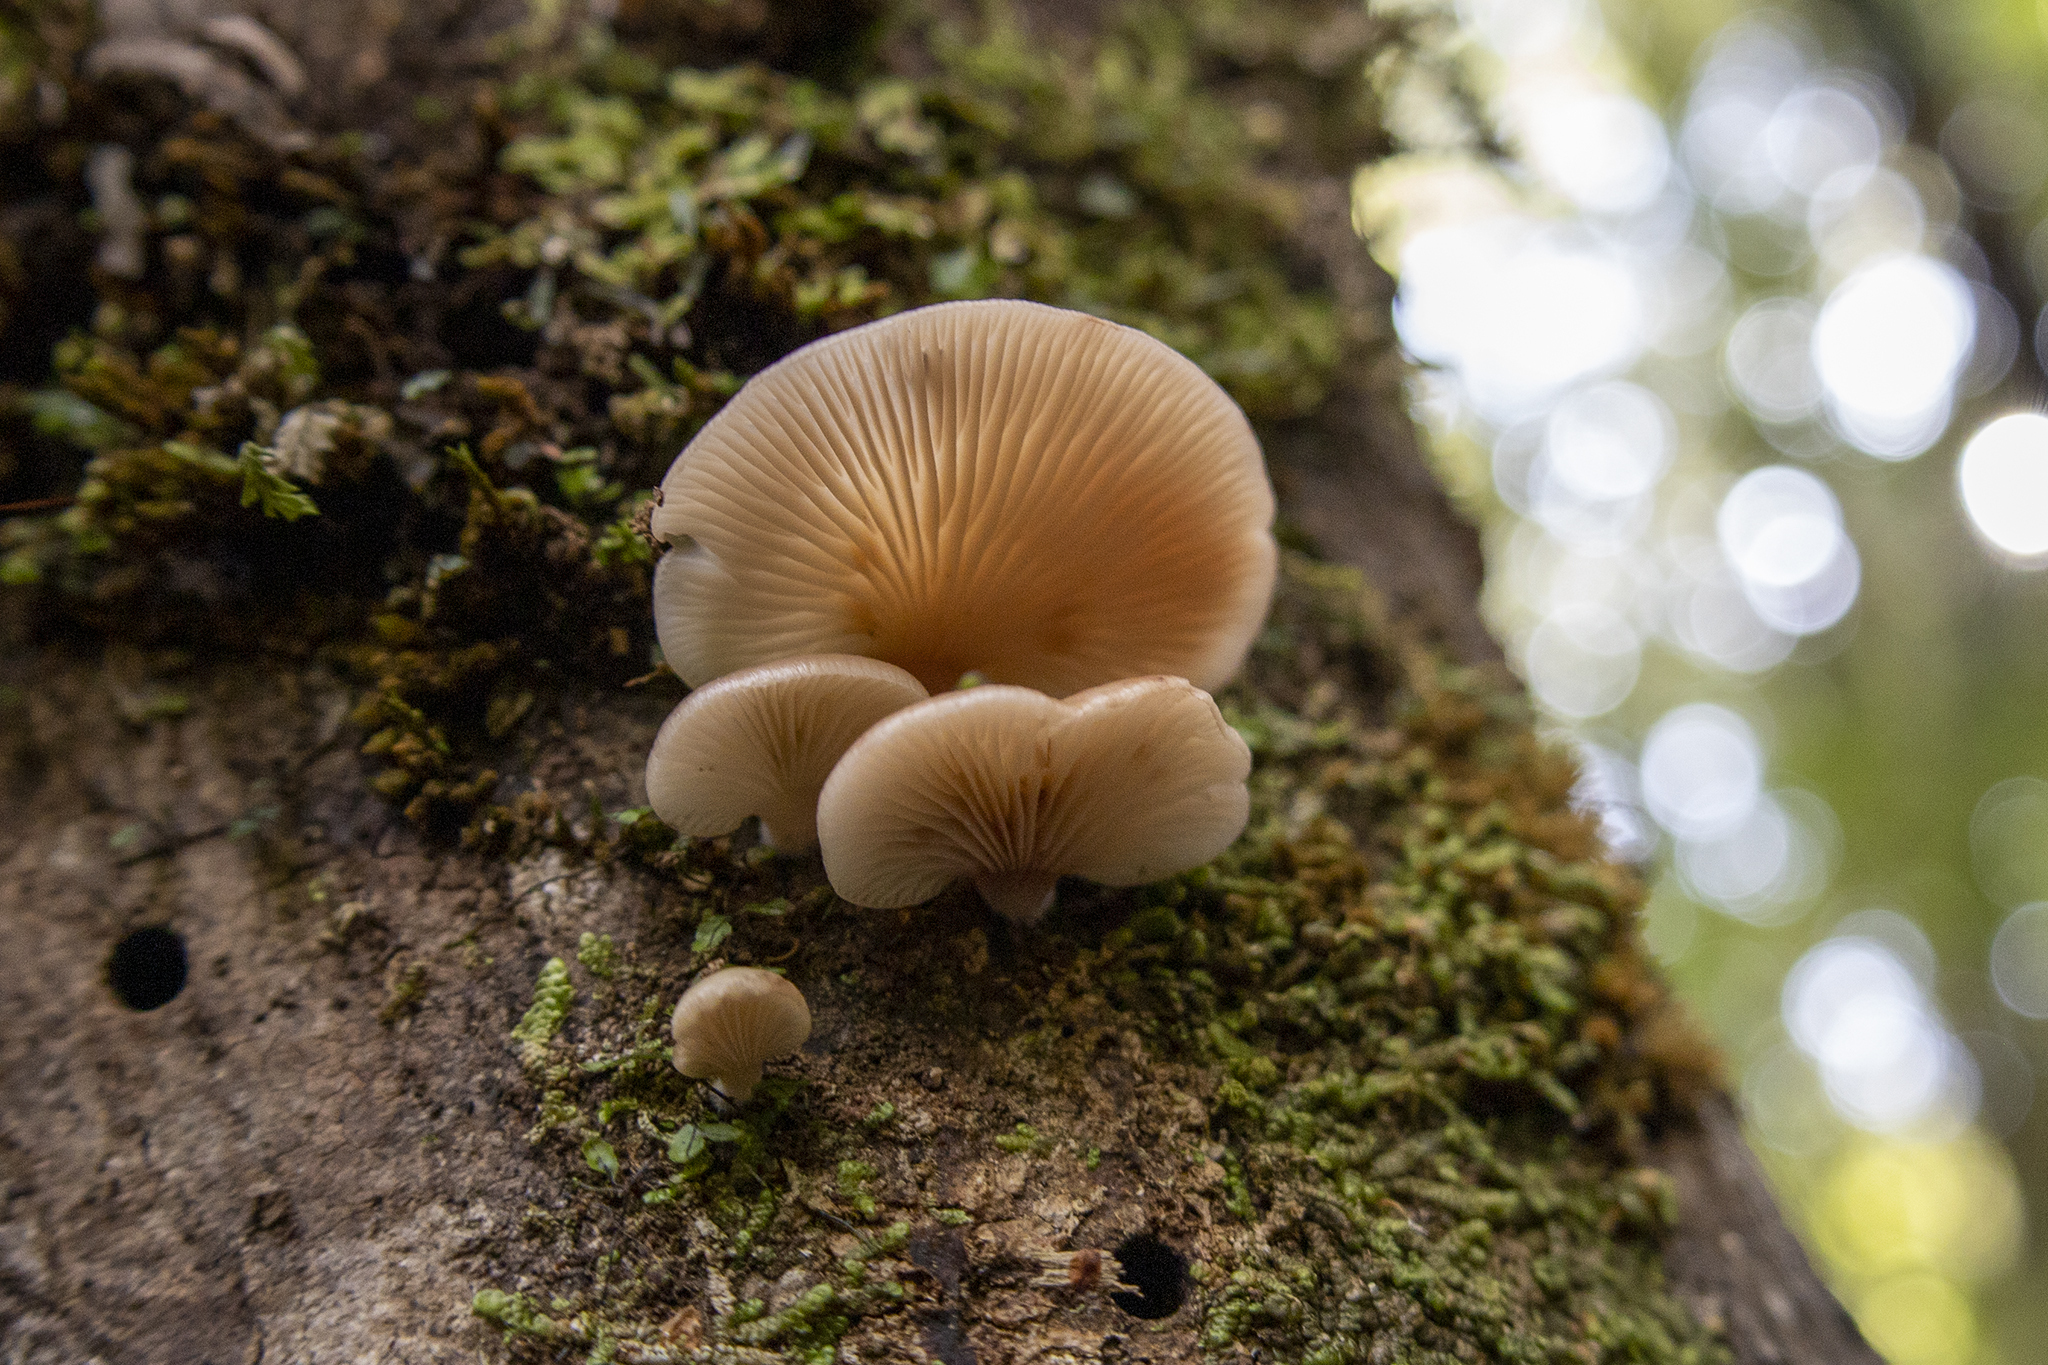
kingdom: Fungi
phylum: Basidiomycota
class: Agaricomycetes
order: Agaricales
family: Mycenaceae
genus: Panellus
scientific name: Panellus longinquus
